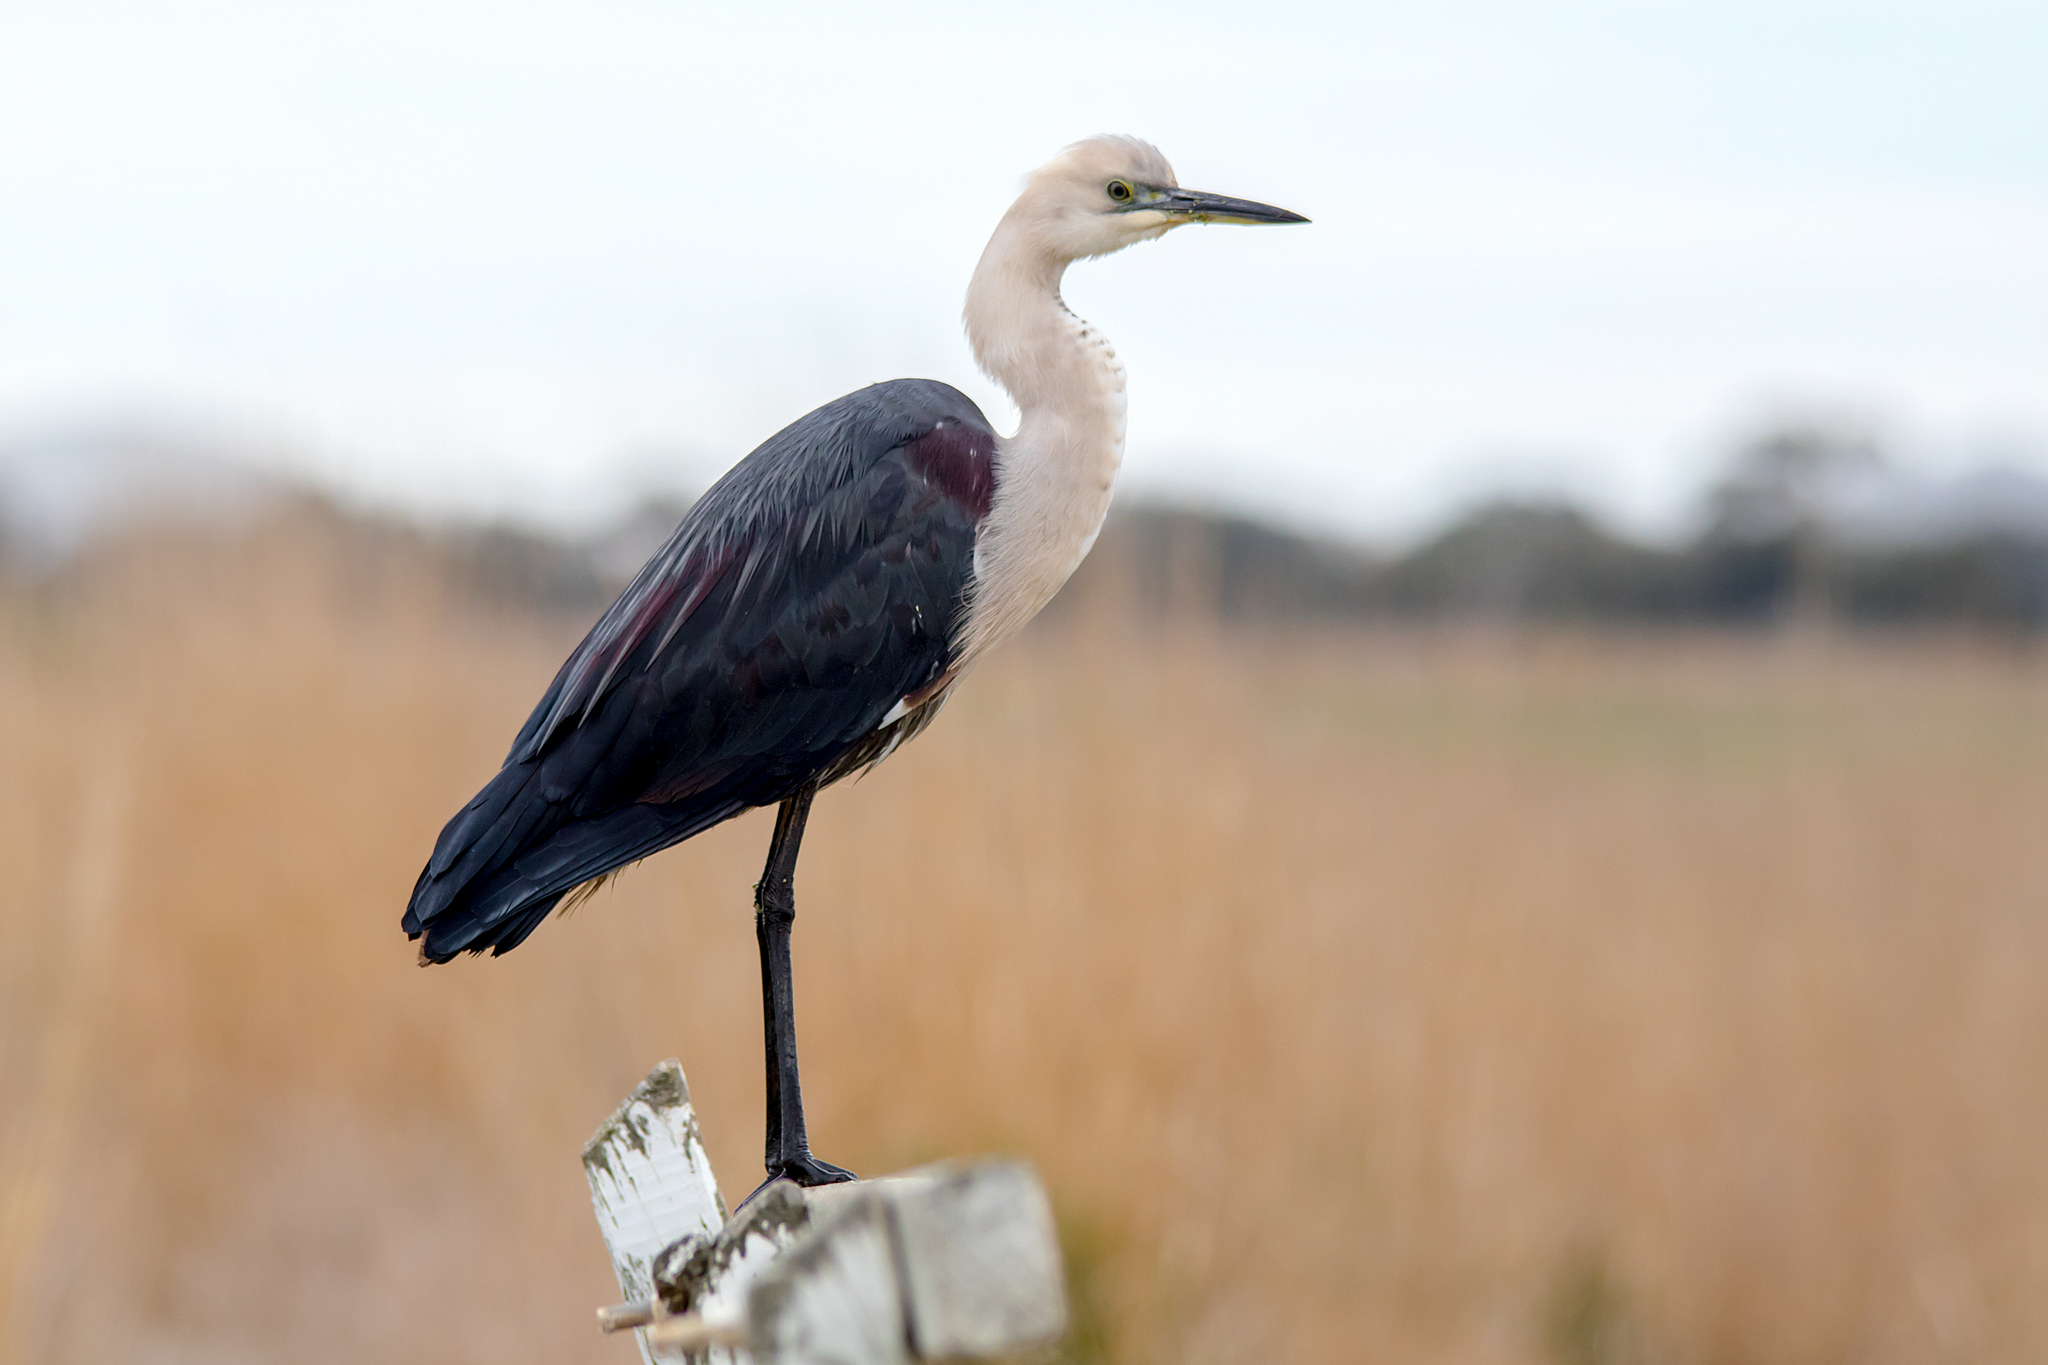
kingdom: Animalia
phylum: Chordata
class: Aves
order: Pelecaniformes
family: Ardeidae
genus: Ardea
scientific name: Ardea pacifica
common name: White-necked heron
